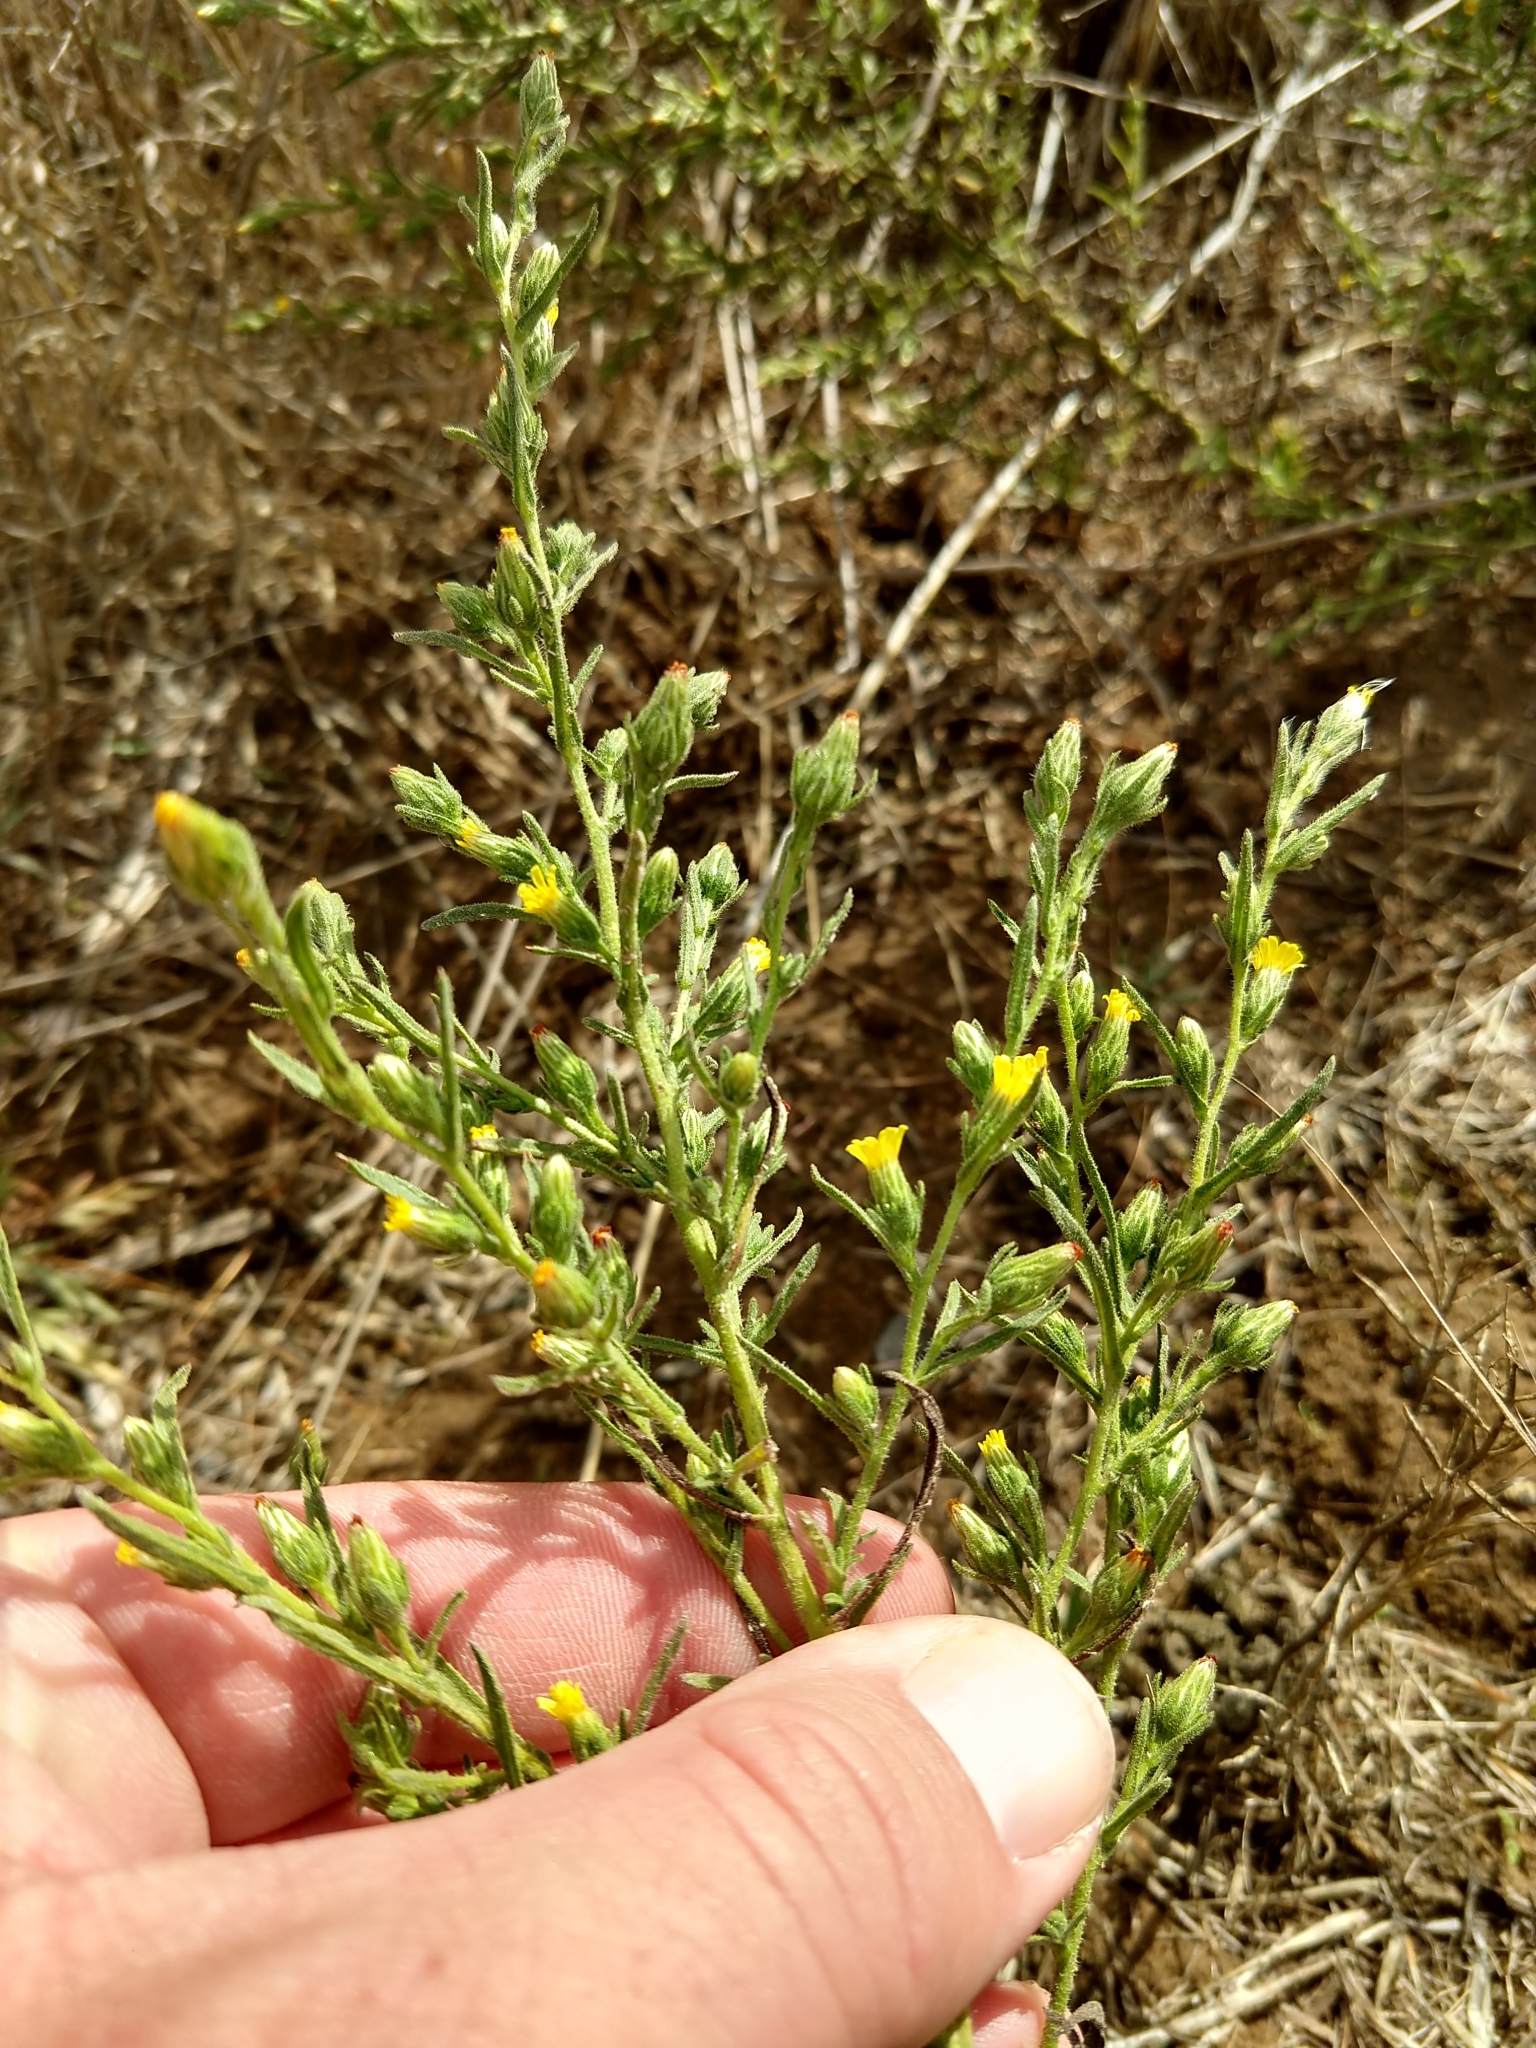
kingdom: Plantae
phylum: Tracheophyta
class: Magnoliopsida
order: Asterales
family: Asteraceae
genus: Dittrichia
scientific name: Dittrichia graveolens
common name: Stinking fleabane
